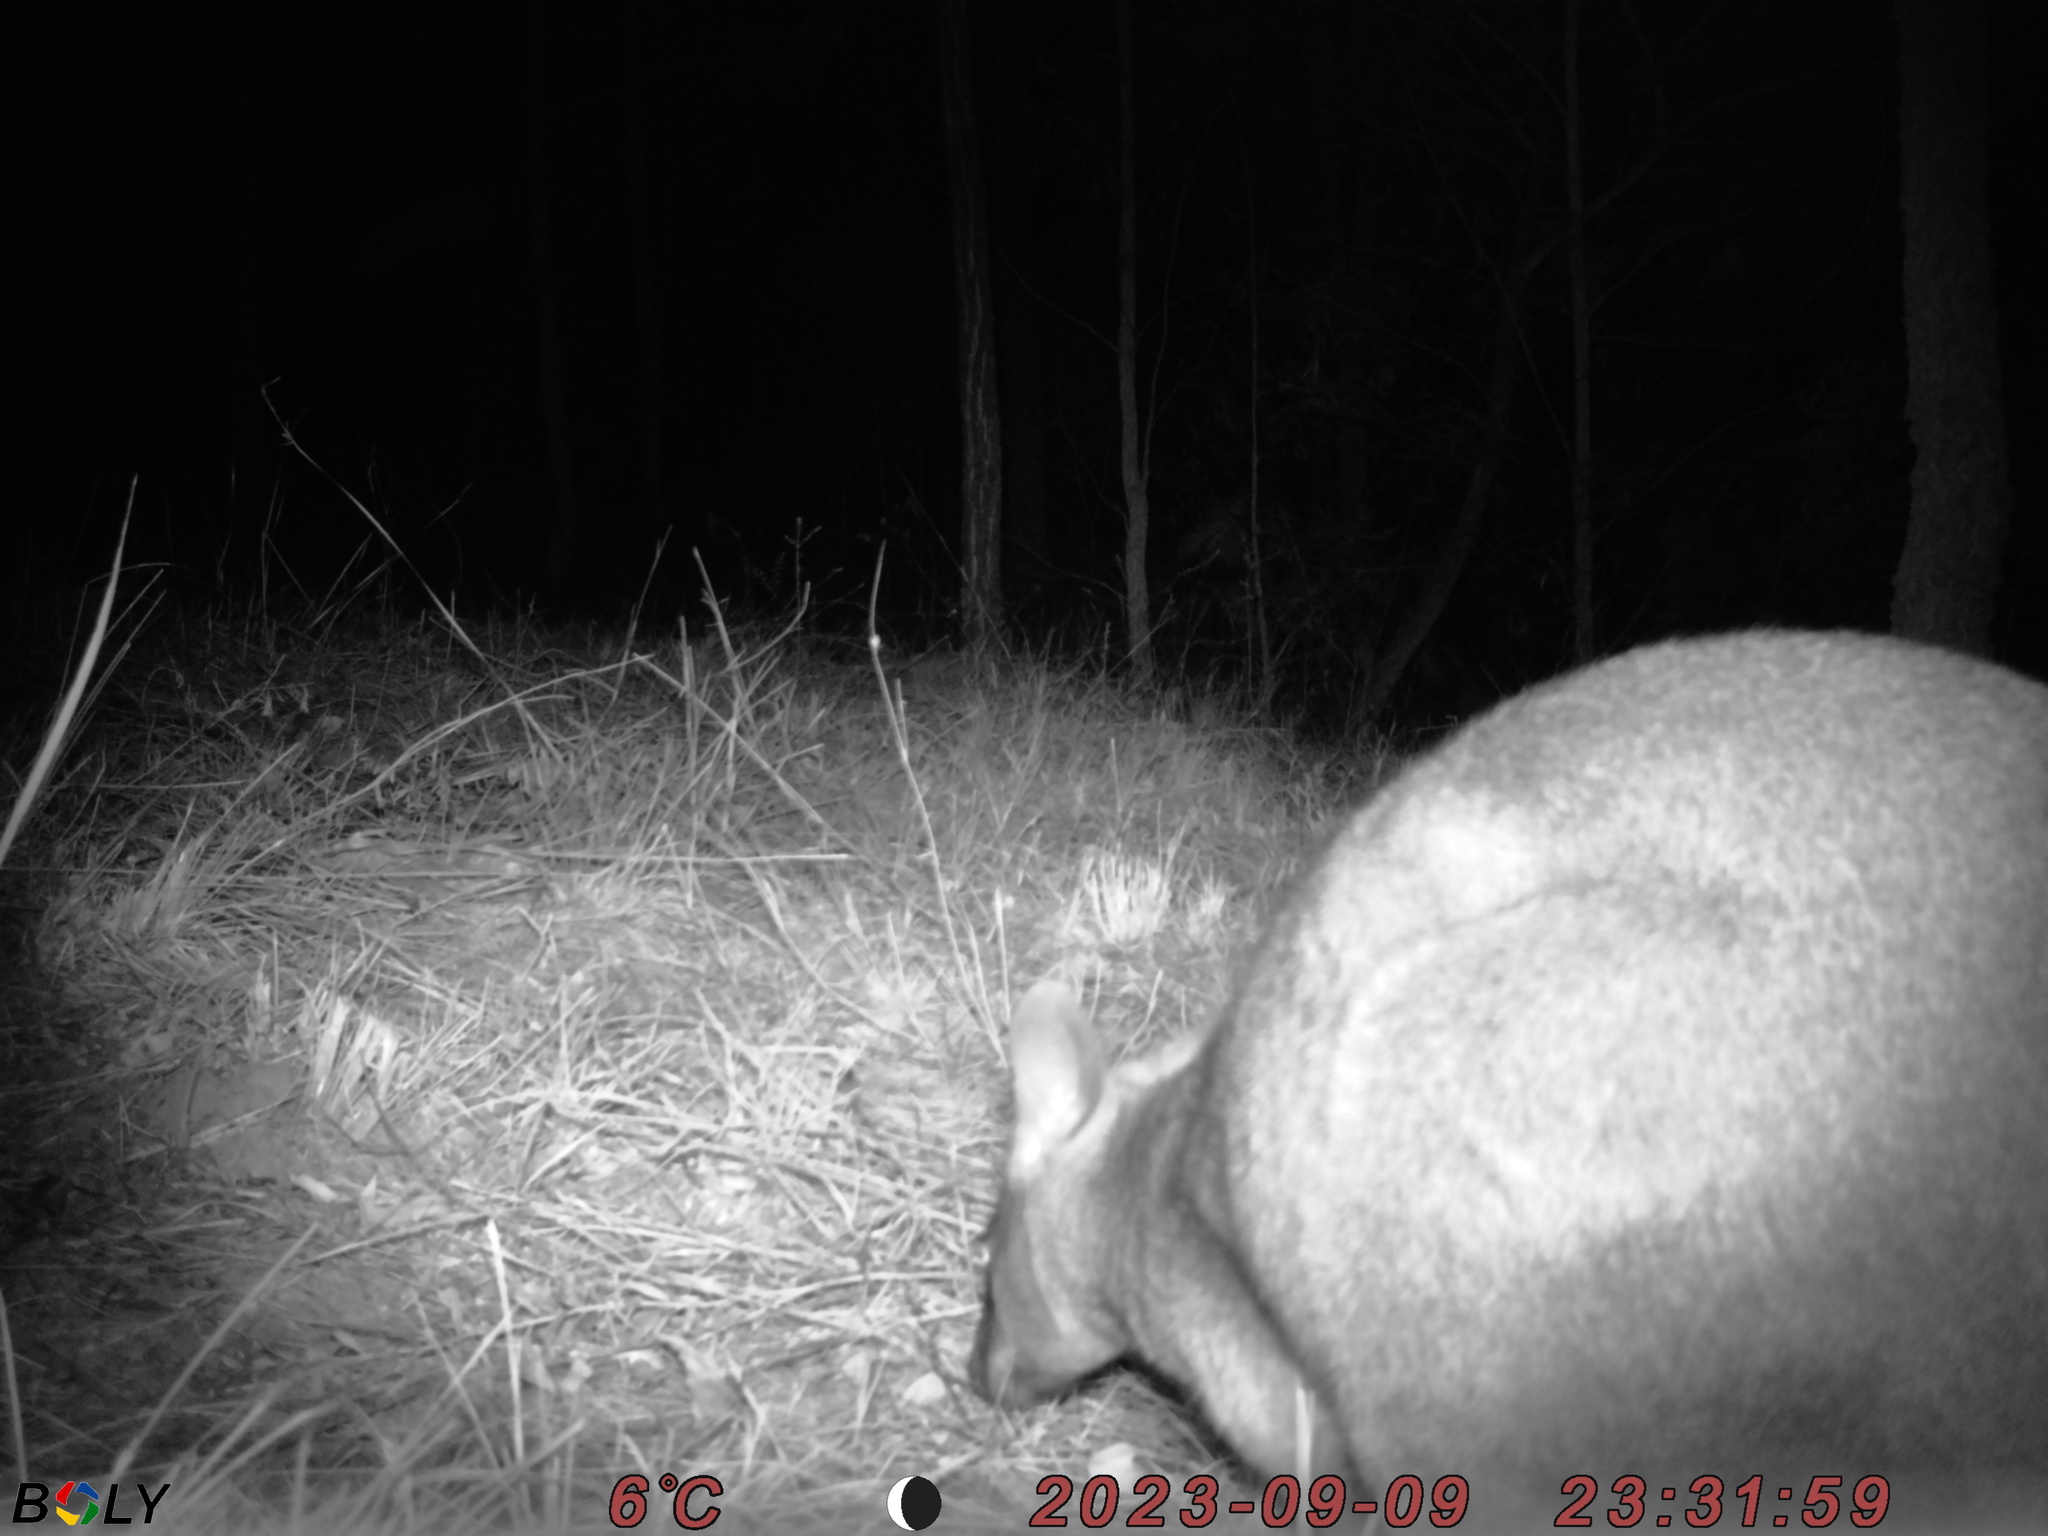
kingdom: Animalia
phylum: Chordata
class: Mammalia
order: Diprotodontia
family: Macropodidae
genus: Wallabia
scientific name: Wallabia bicolor
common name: Swamp wallaby
